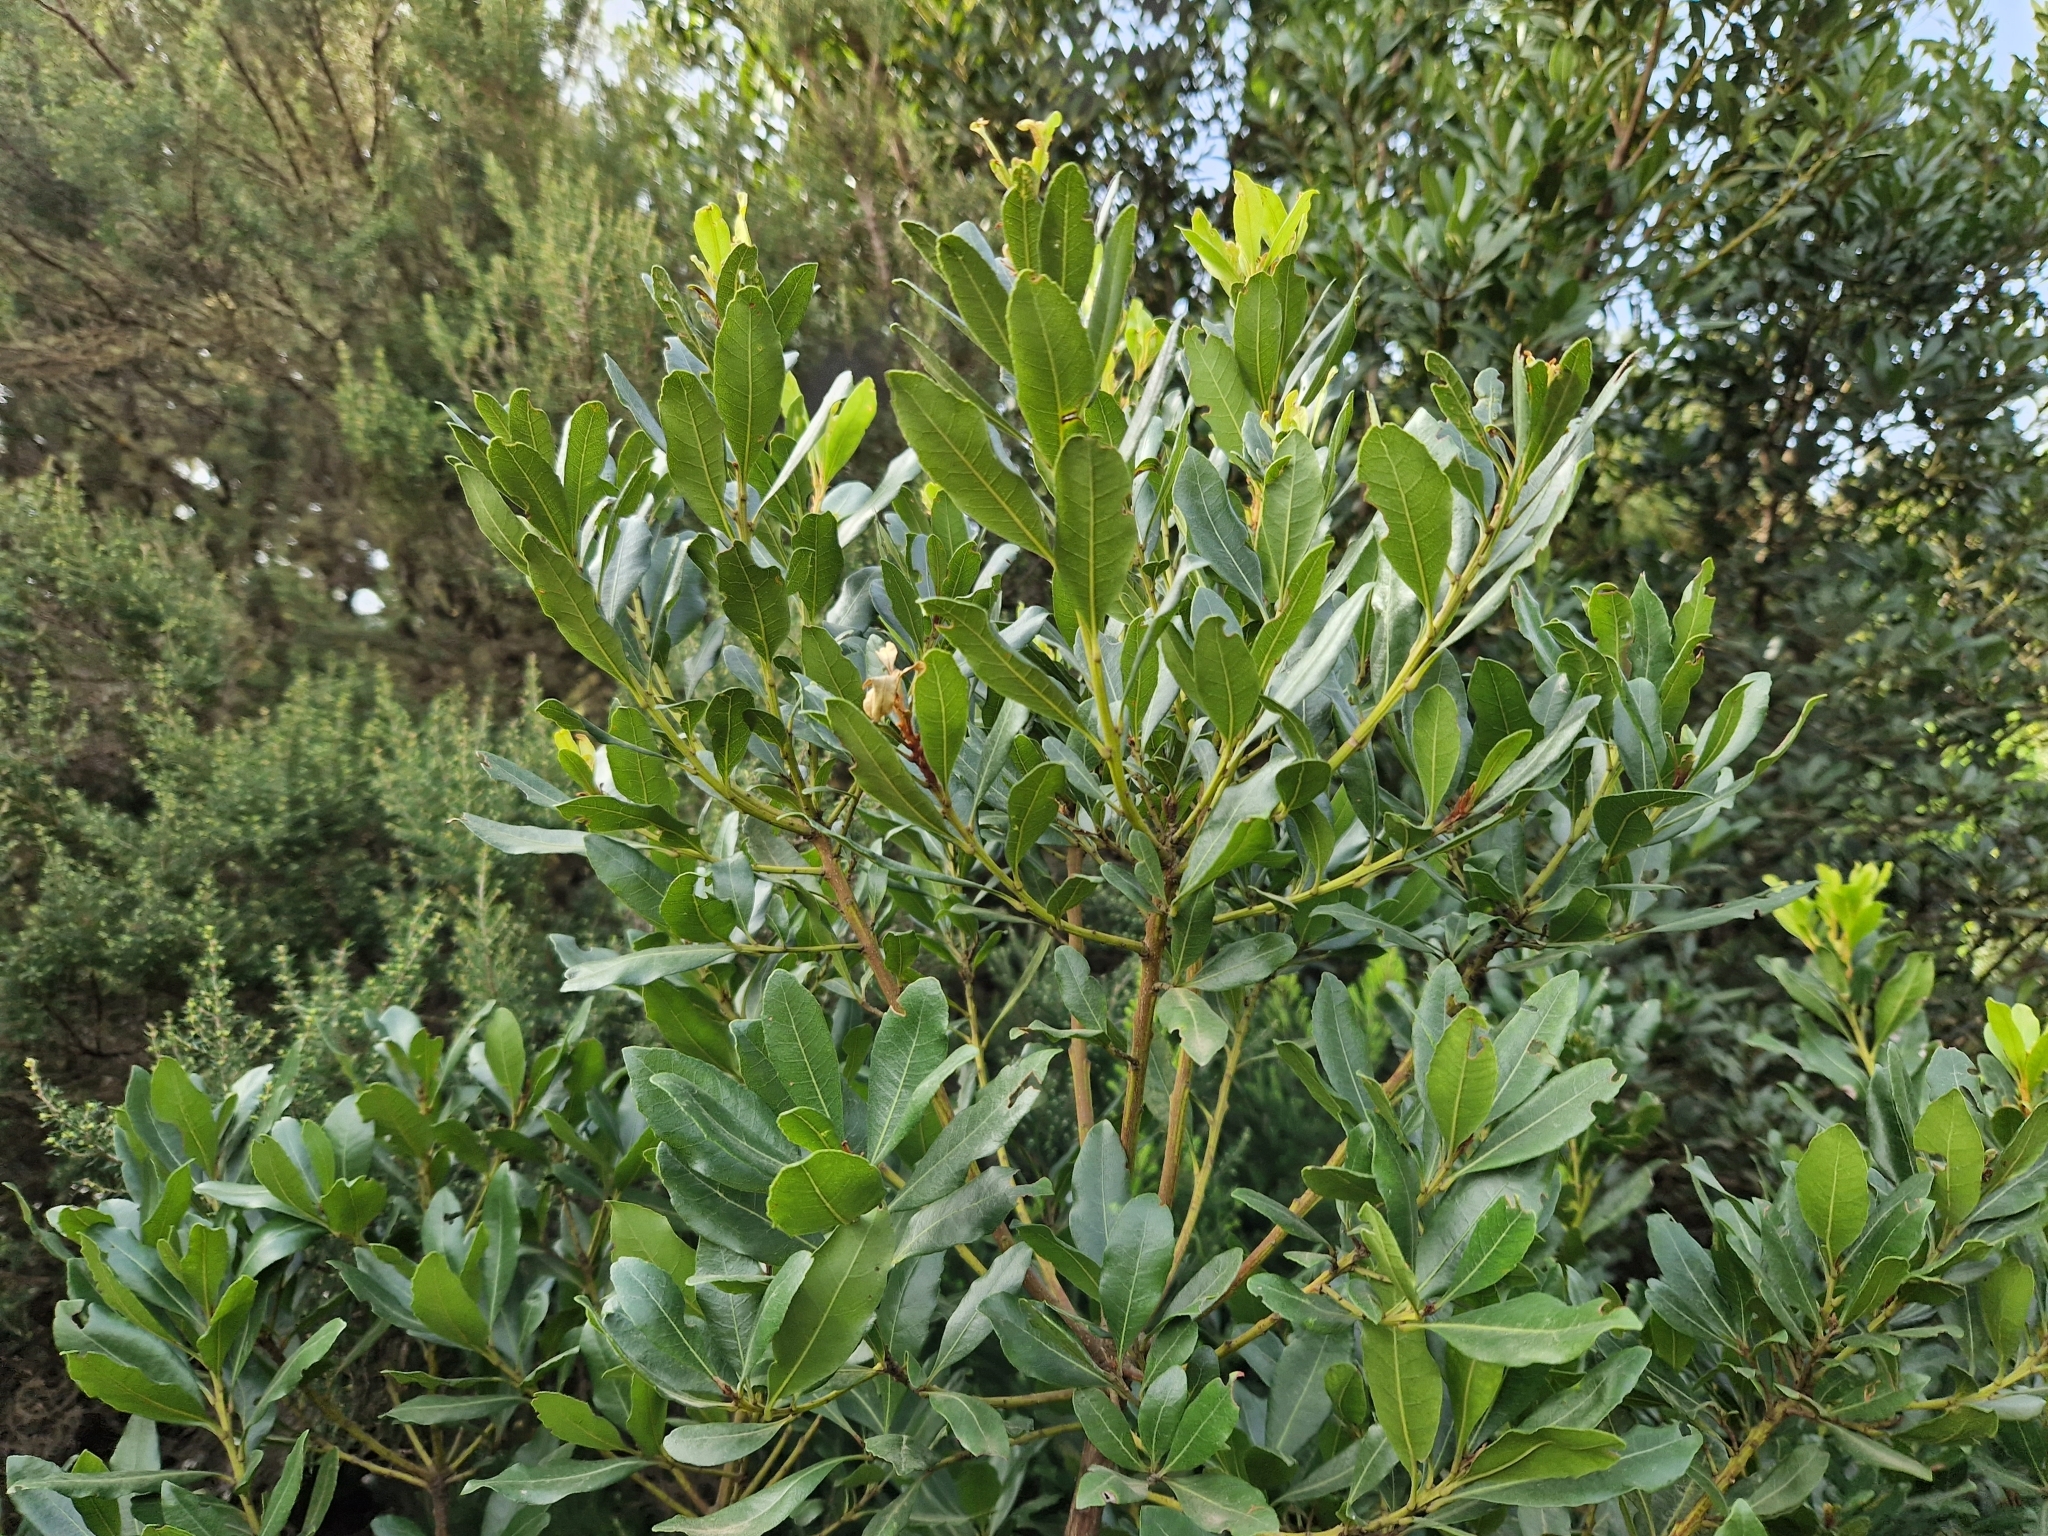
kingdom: Plantae
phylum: Tracheophyta
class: Magnoliopsida
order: Fagales
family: Myricaceae
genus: Morella
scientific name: Morella faya
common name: Firetree
